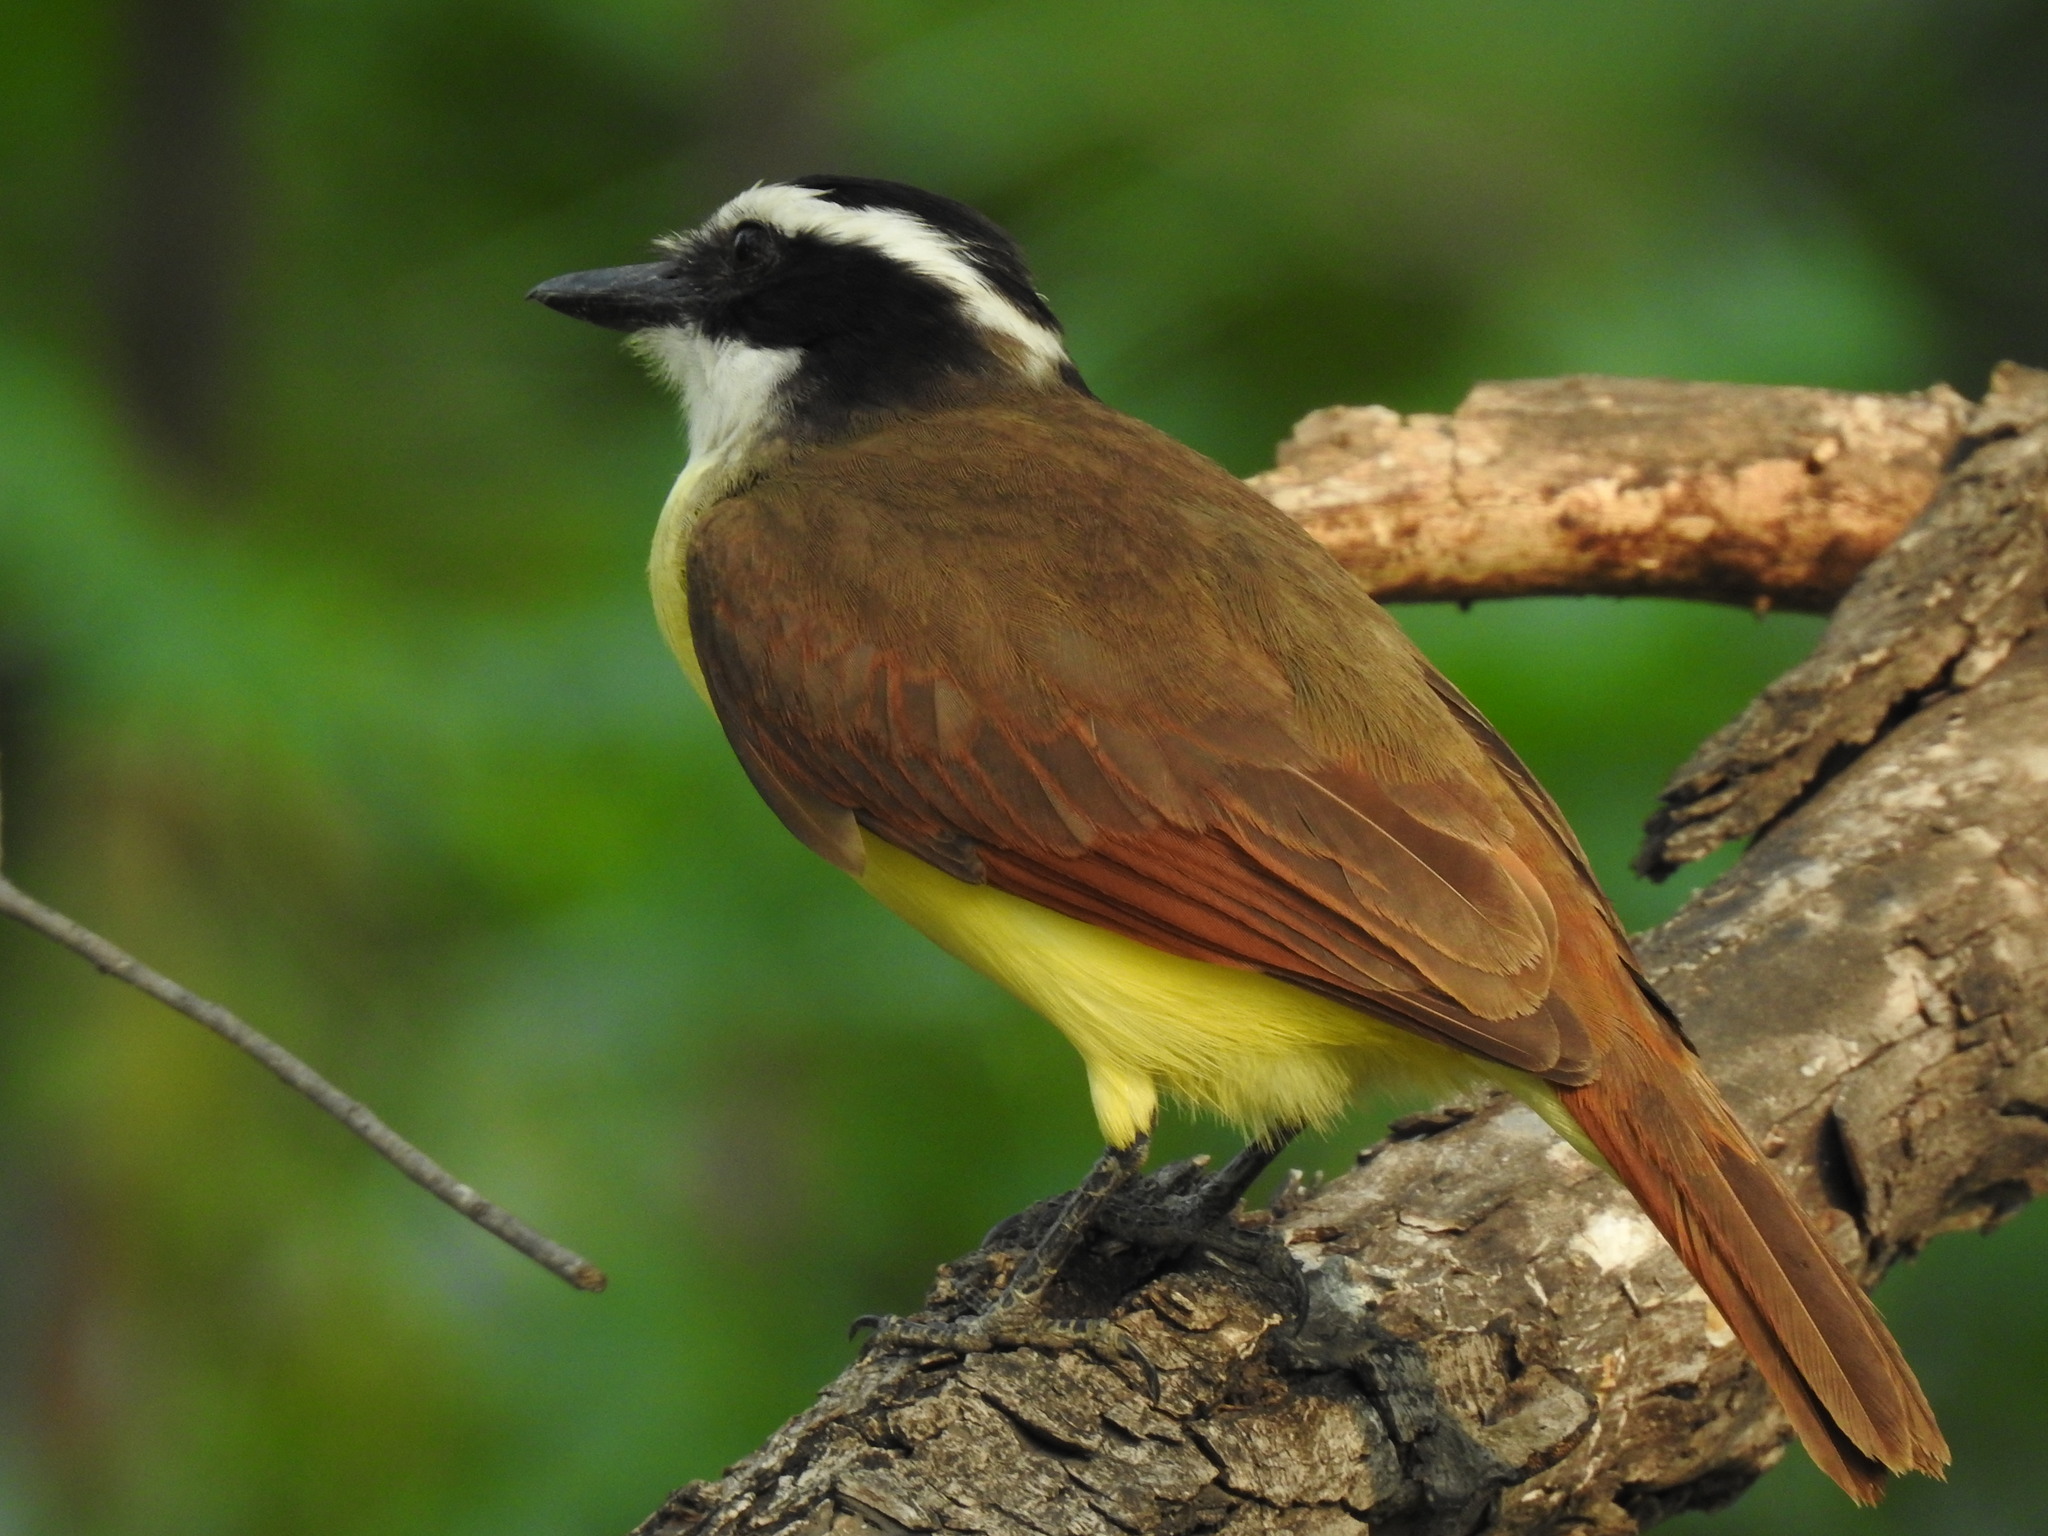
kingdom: Animalia
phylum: Chordata
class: Aves
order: Passeriformes
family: Tyrannidae
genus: Pitangus
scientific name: Pitangus sulphuratus
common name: Great kiskadee
